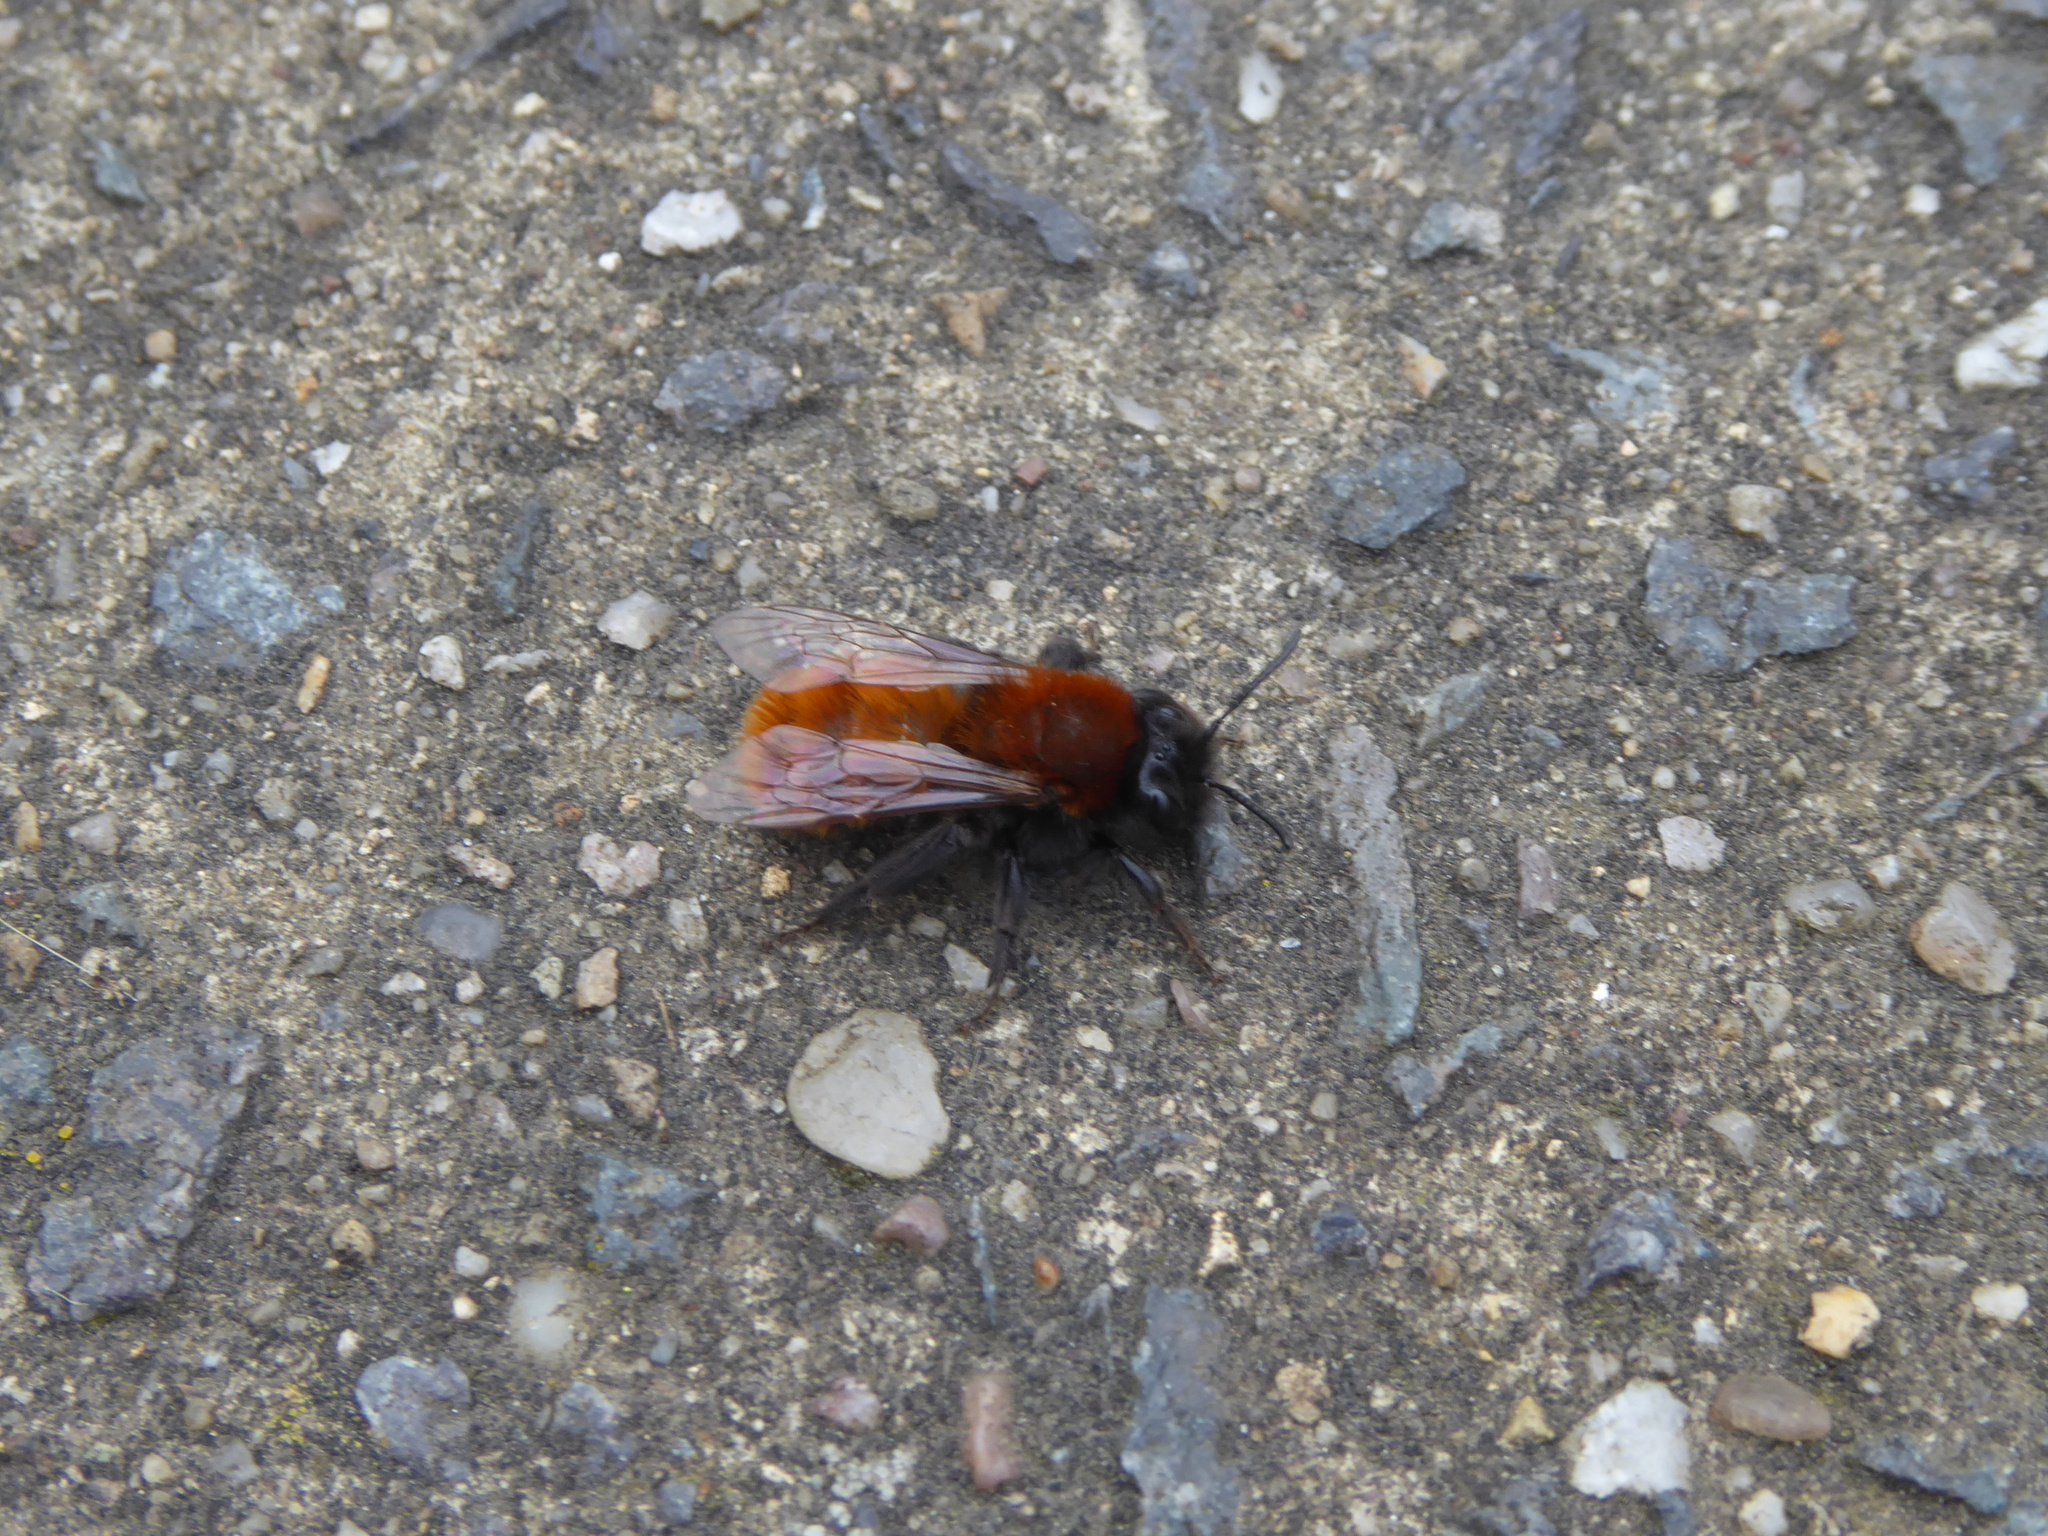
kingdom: Animalia
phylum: Arthropoda
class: Insecta
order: Hymenoptera
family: Andrenidae
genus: Andrena
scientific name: Andrena fulva
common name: Tawny mining bee
